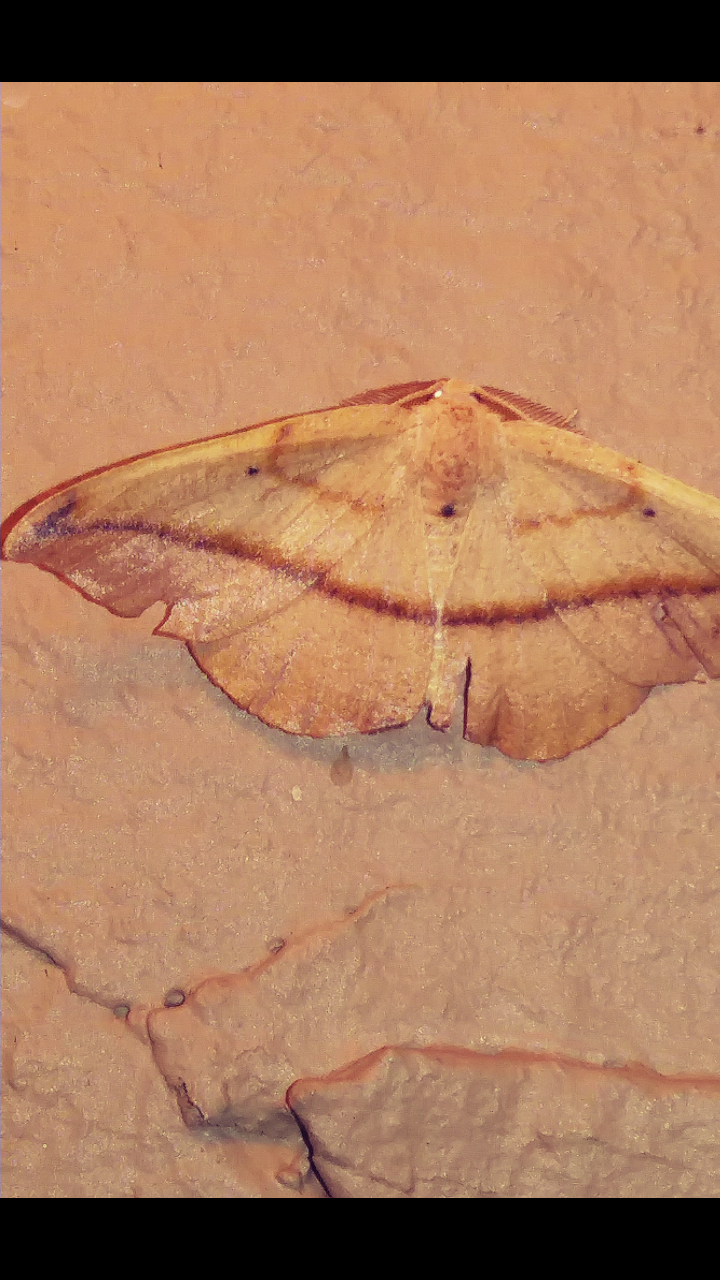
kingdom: Animalia
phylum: Arthropoda
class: Insecta
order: Lepidoptera
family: Geometridae
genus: Patalene
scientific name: Patalene olyzonaria
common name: Juniper geometer moth
